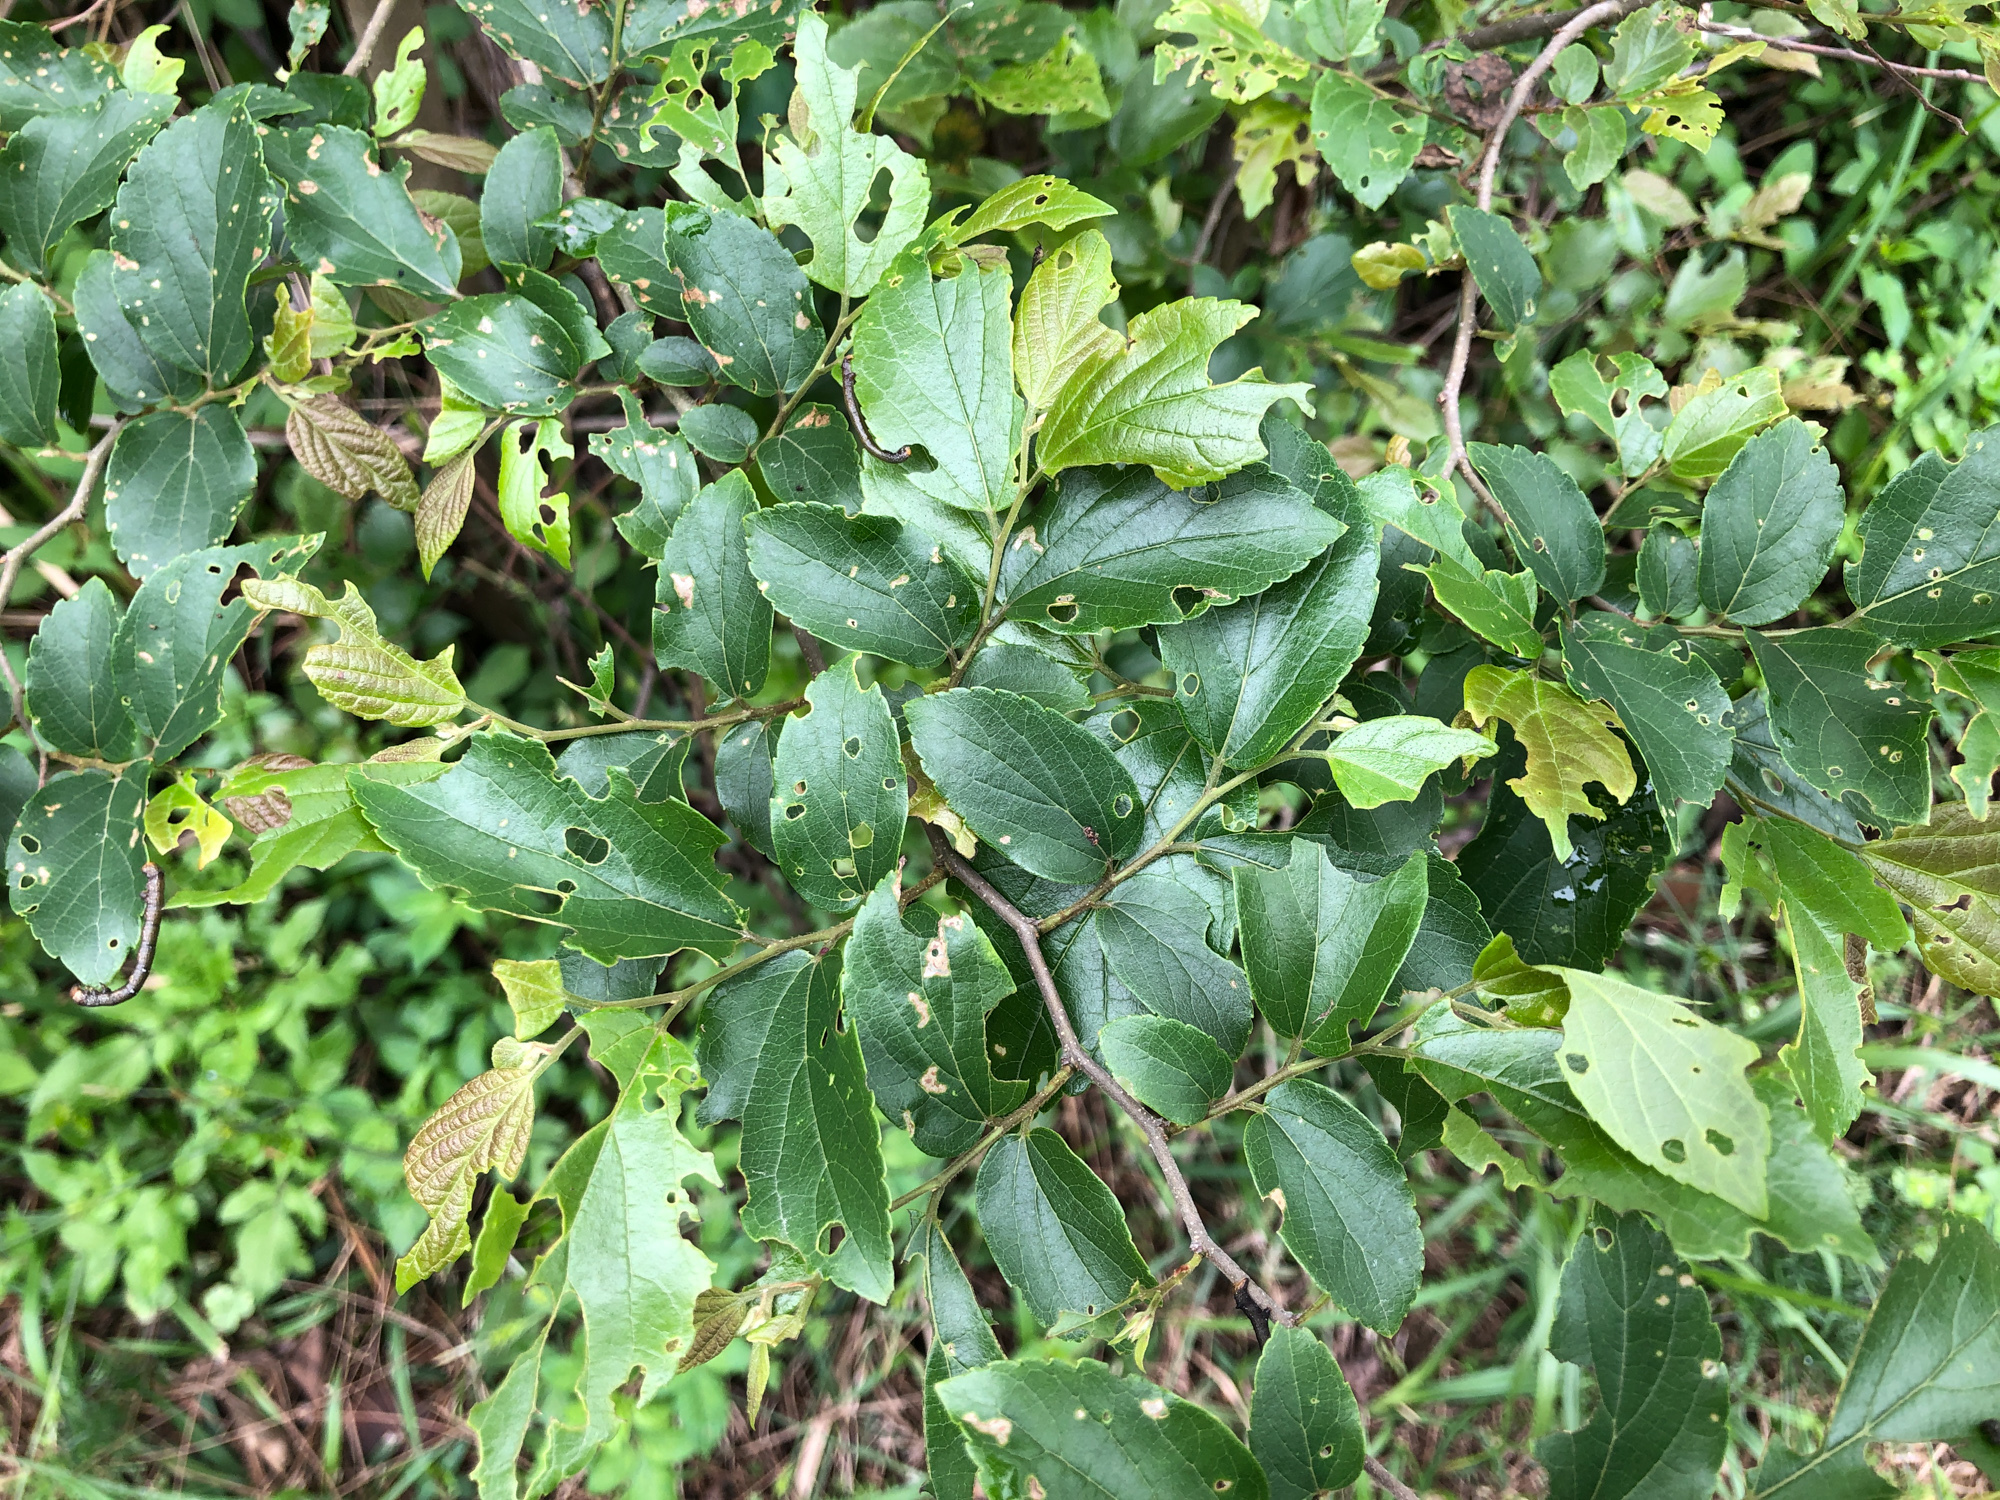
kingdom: Plantae
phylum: Tracheophyta
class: Magnoliopsida
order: Rosales
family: Cannabaceae
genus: Celtis
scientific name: Celtis sinensis
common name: Chinese hackberry
